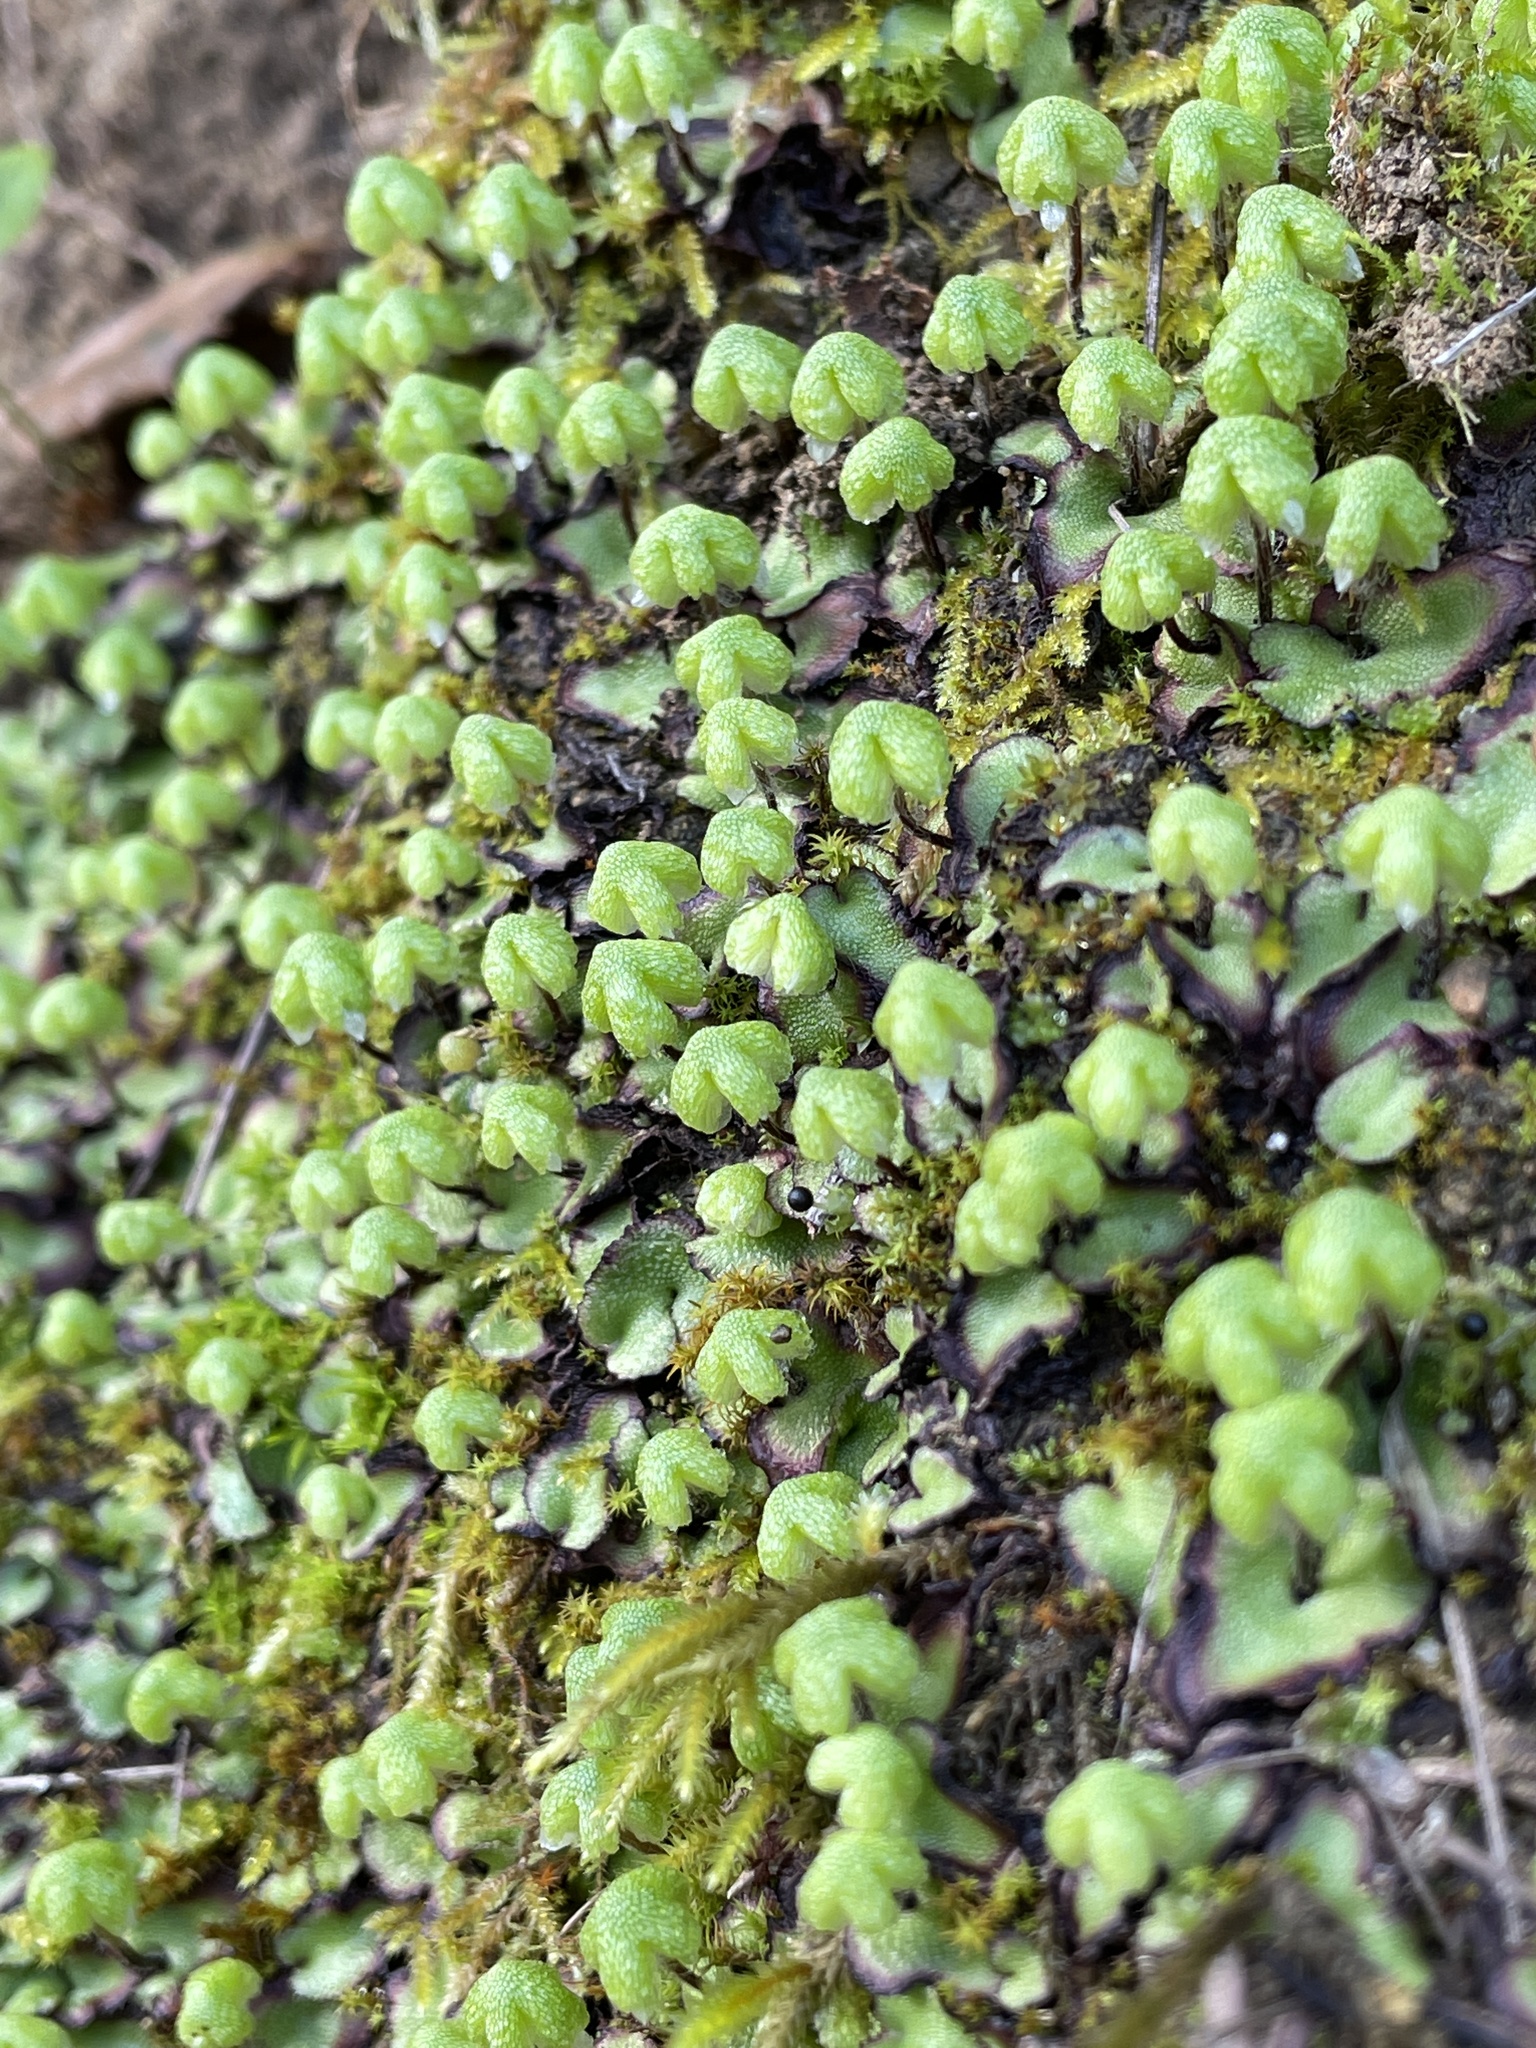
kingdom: Plantae
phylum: Marchantiophyta
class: Marchantiopsida
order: Marchantiales
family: Aytoniaceae
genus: Asterella
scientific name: Asterella californica
